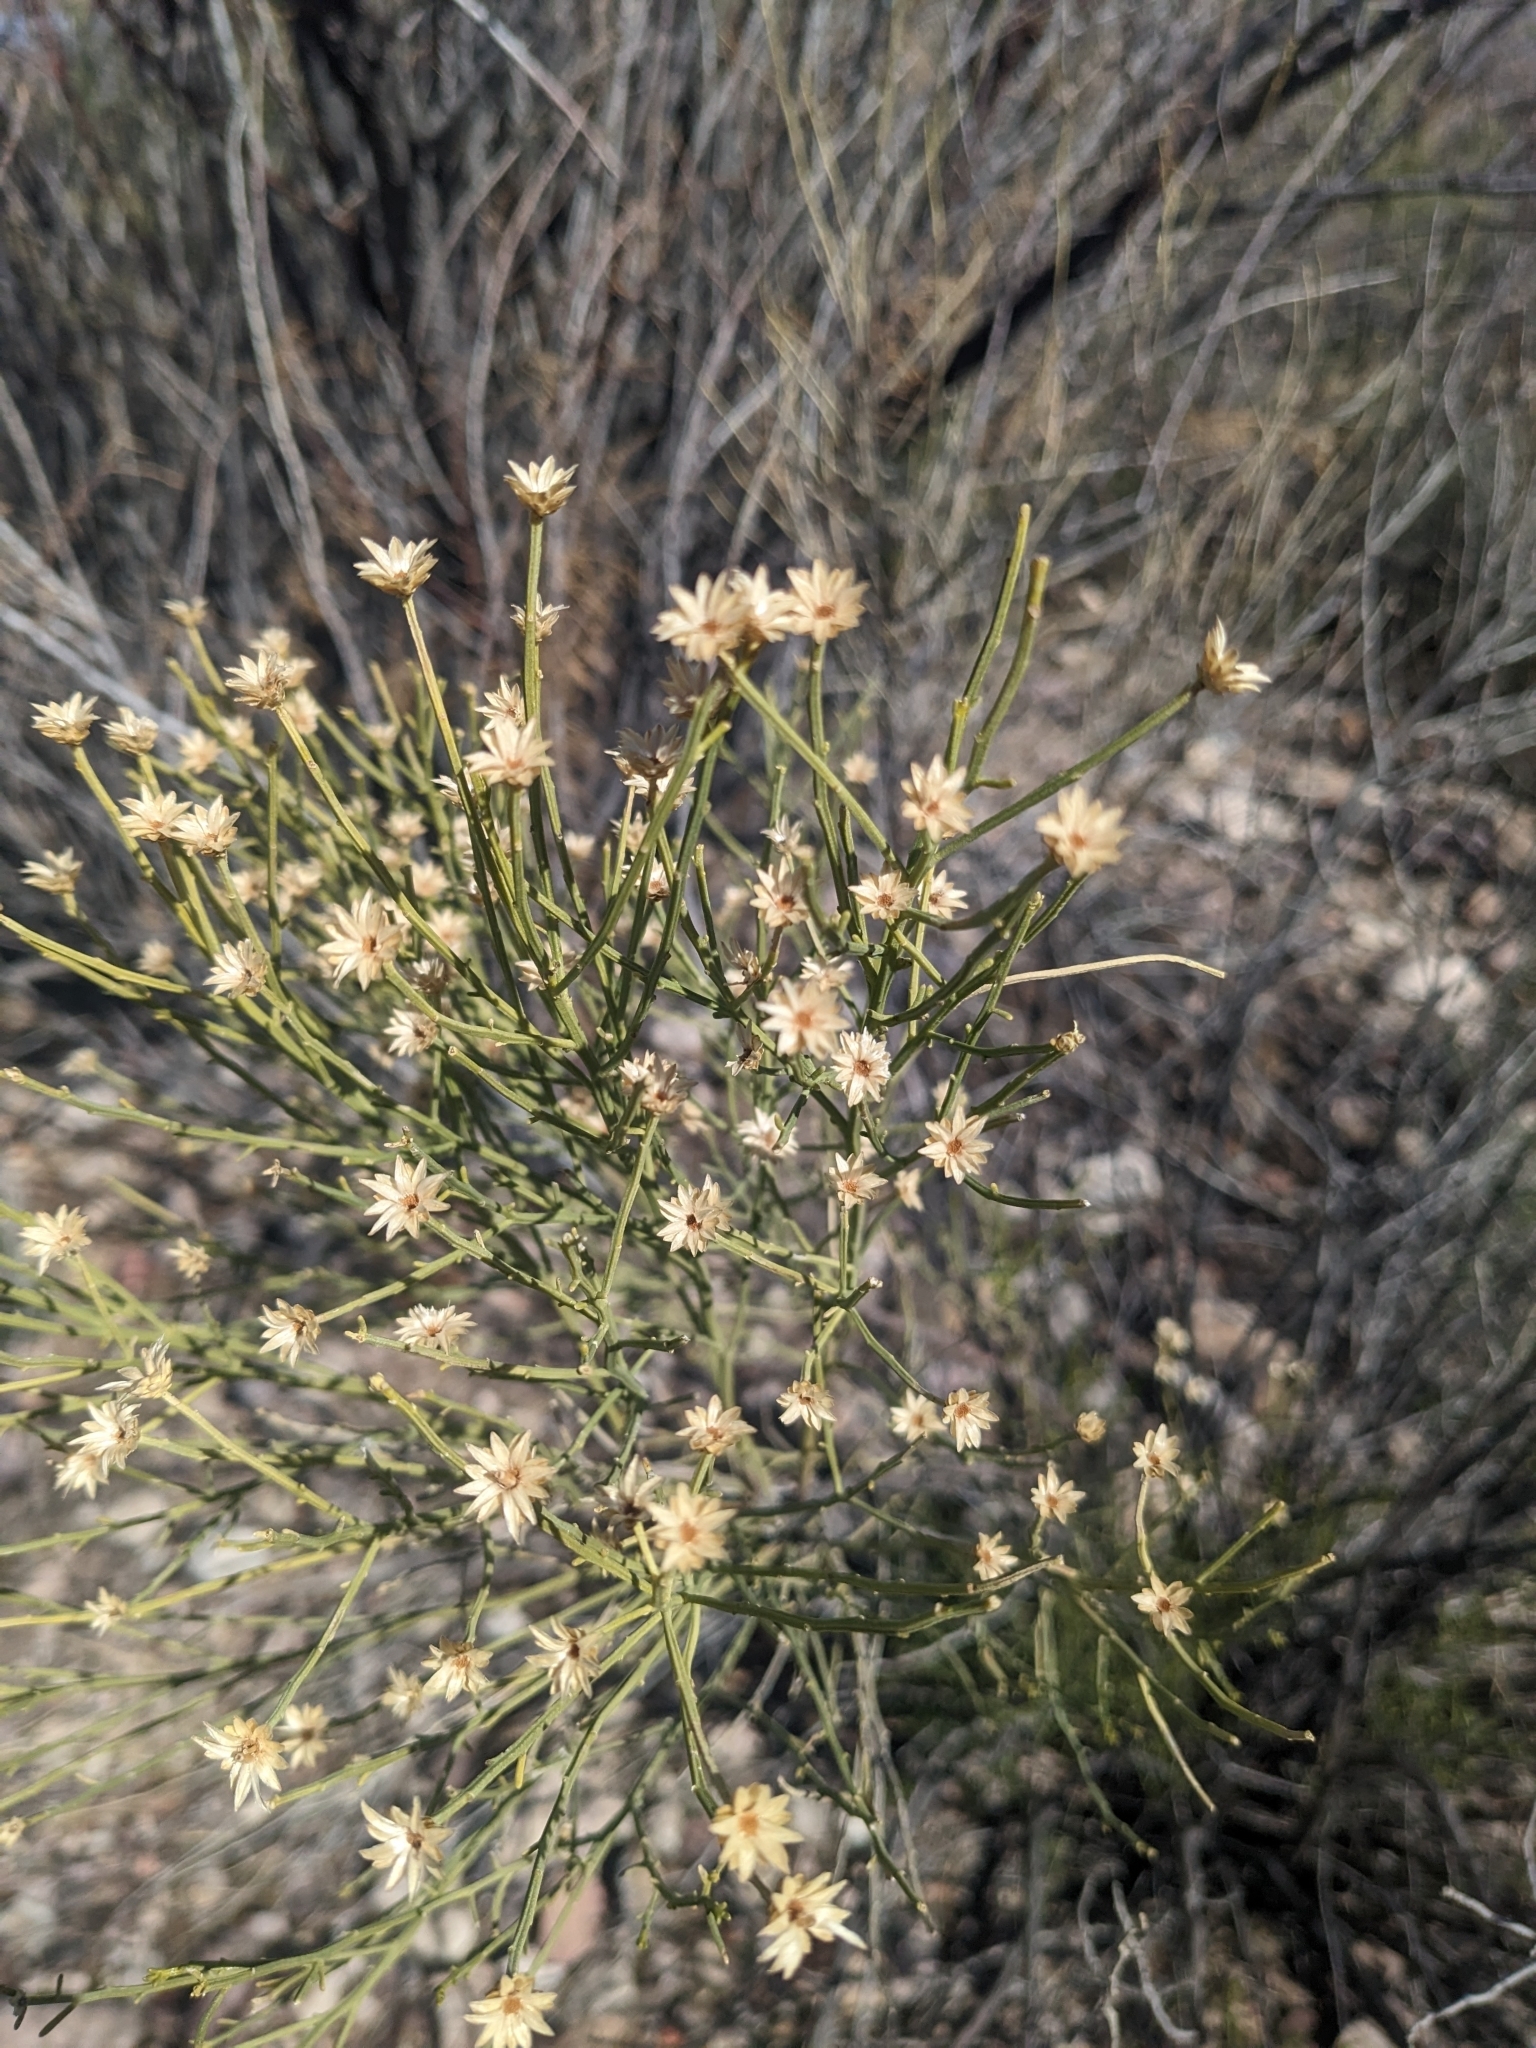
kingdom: Plantae
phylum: Tracheophyta
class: Magnoliopsida
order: Asterales
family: Asteraceae
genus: Baccharis
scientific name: Baccharis sarothroides
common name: Desert-broom
